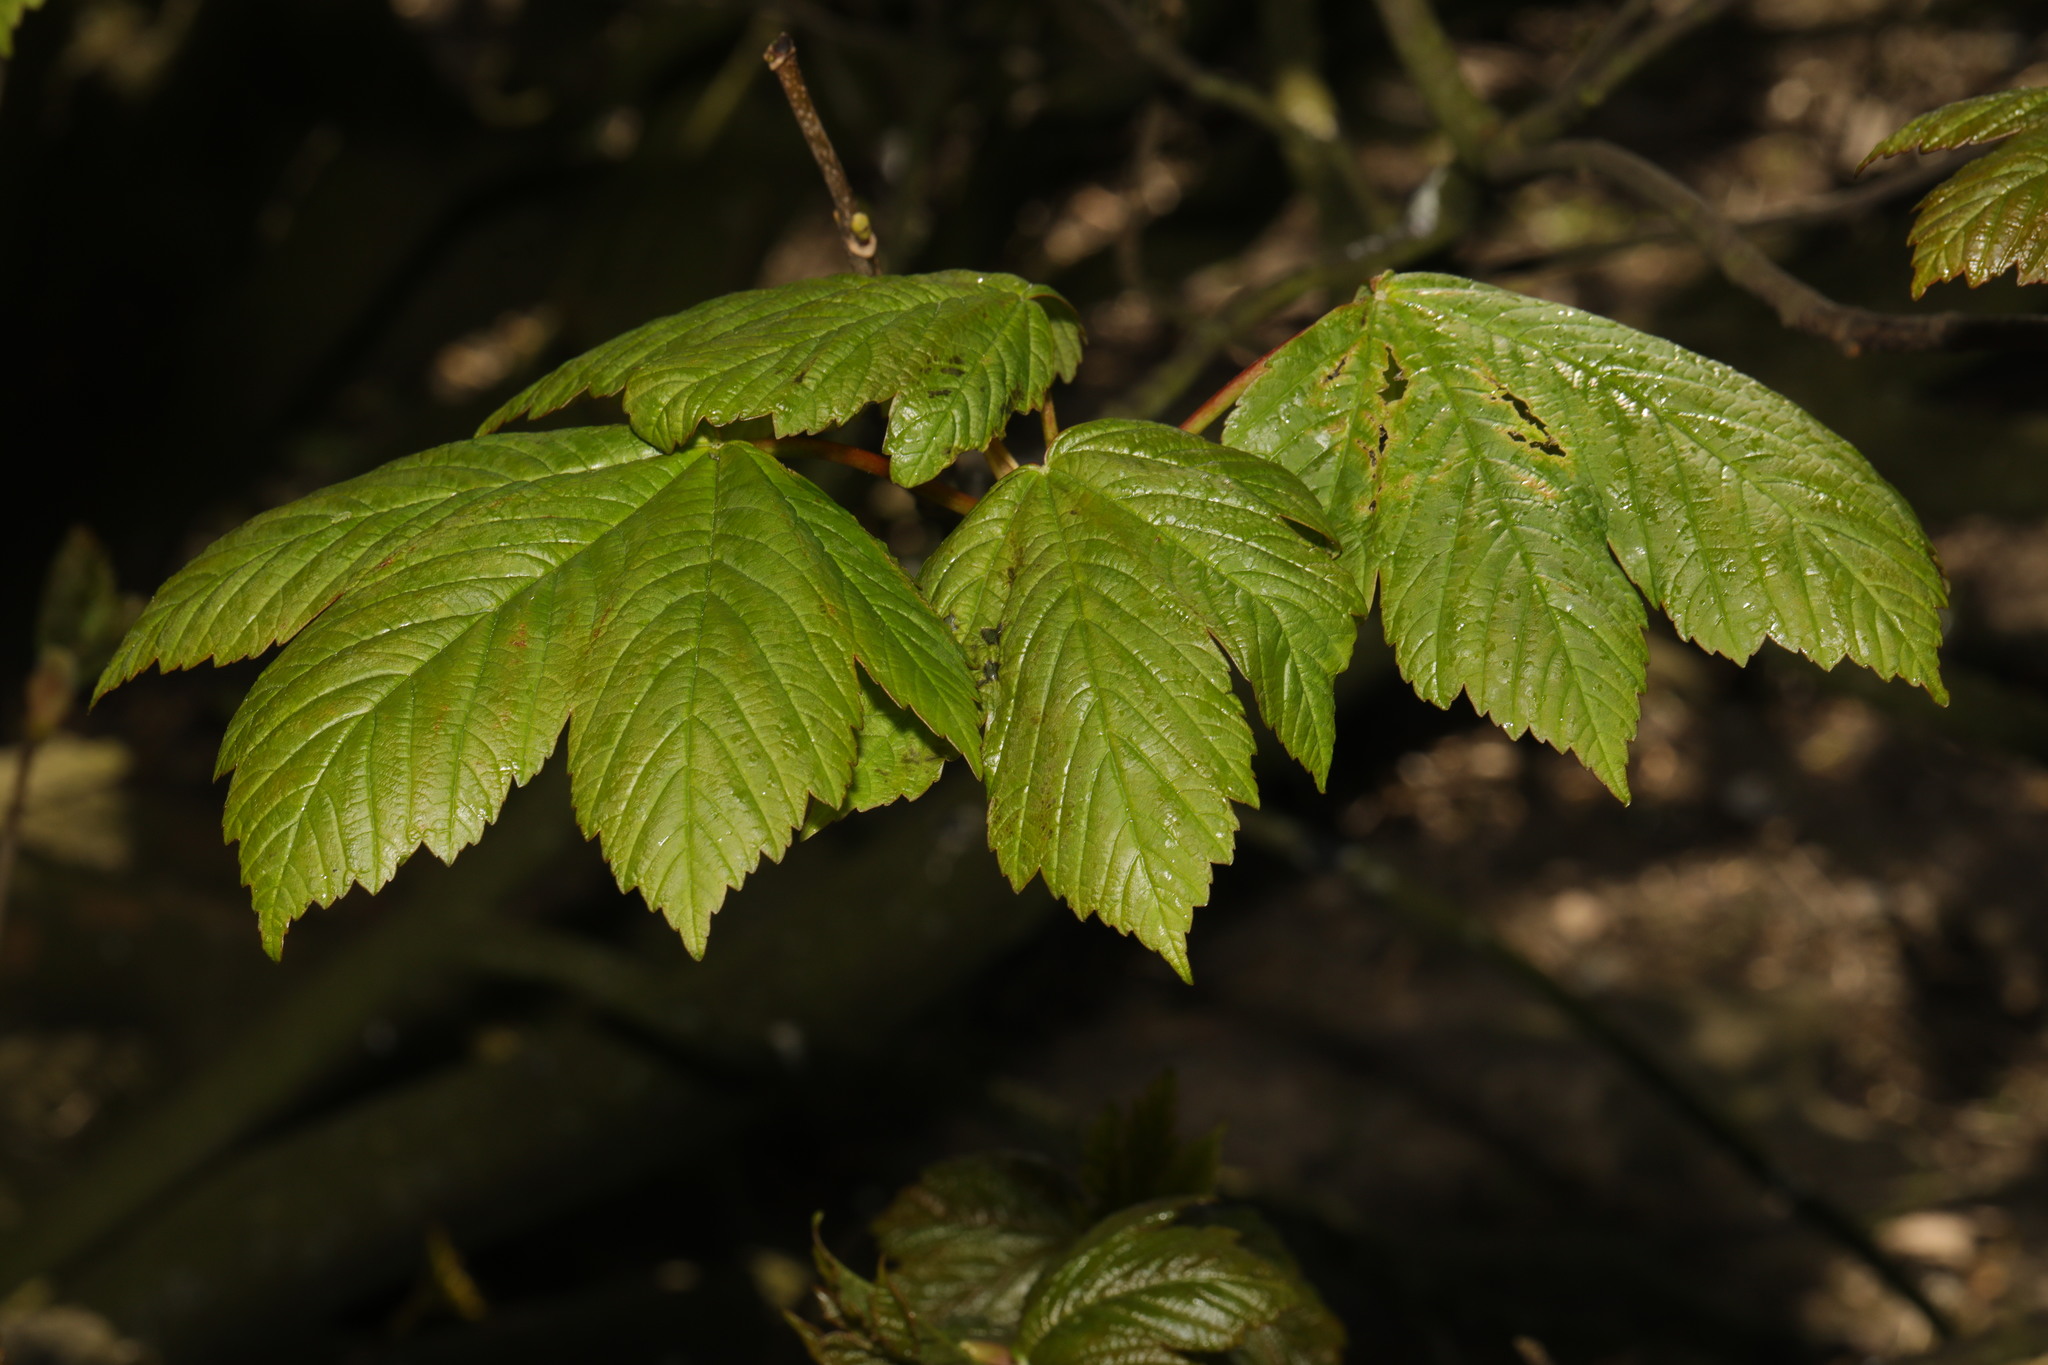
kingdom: Plantae
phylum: Tracheophyta
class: Magnoliopsida
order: Sapindales
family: Sapindaceae
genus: Acer
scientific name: Acer pseudoplatanus
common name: Sycamore
